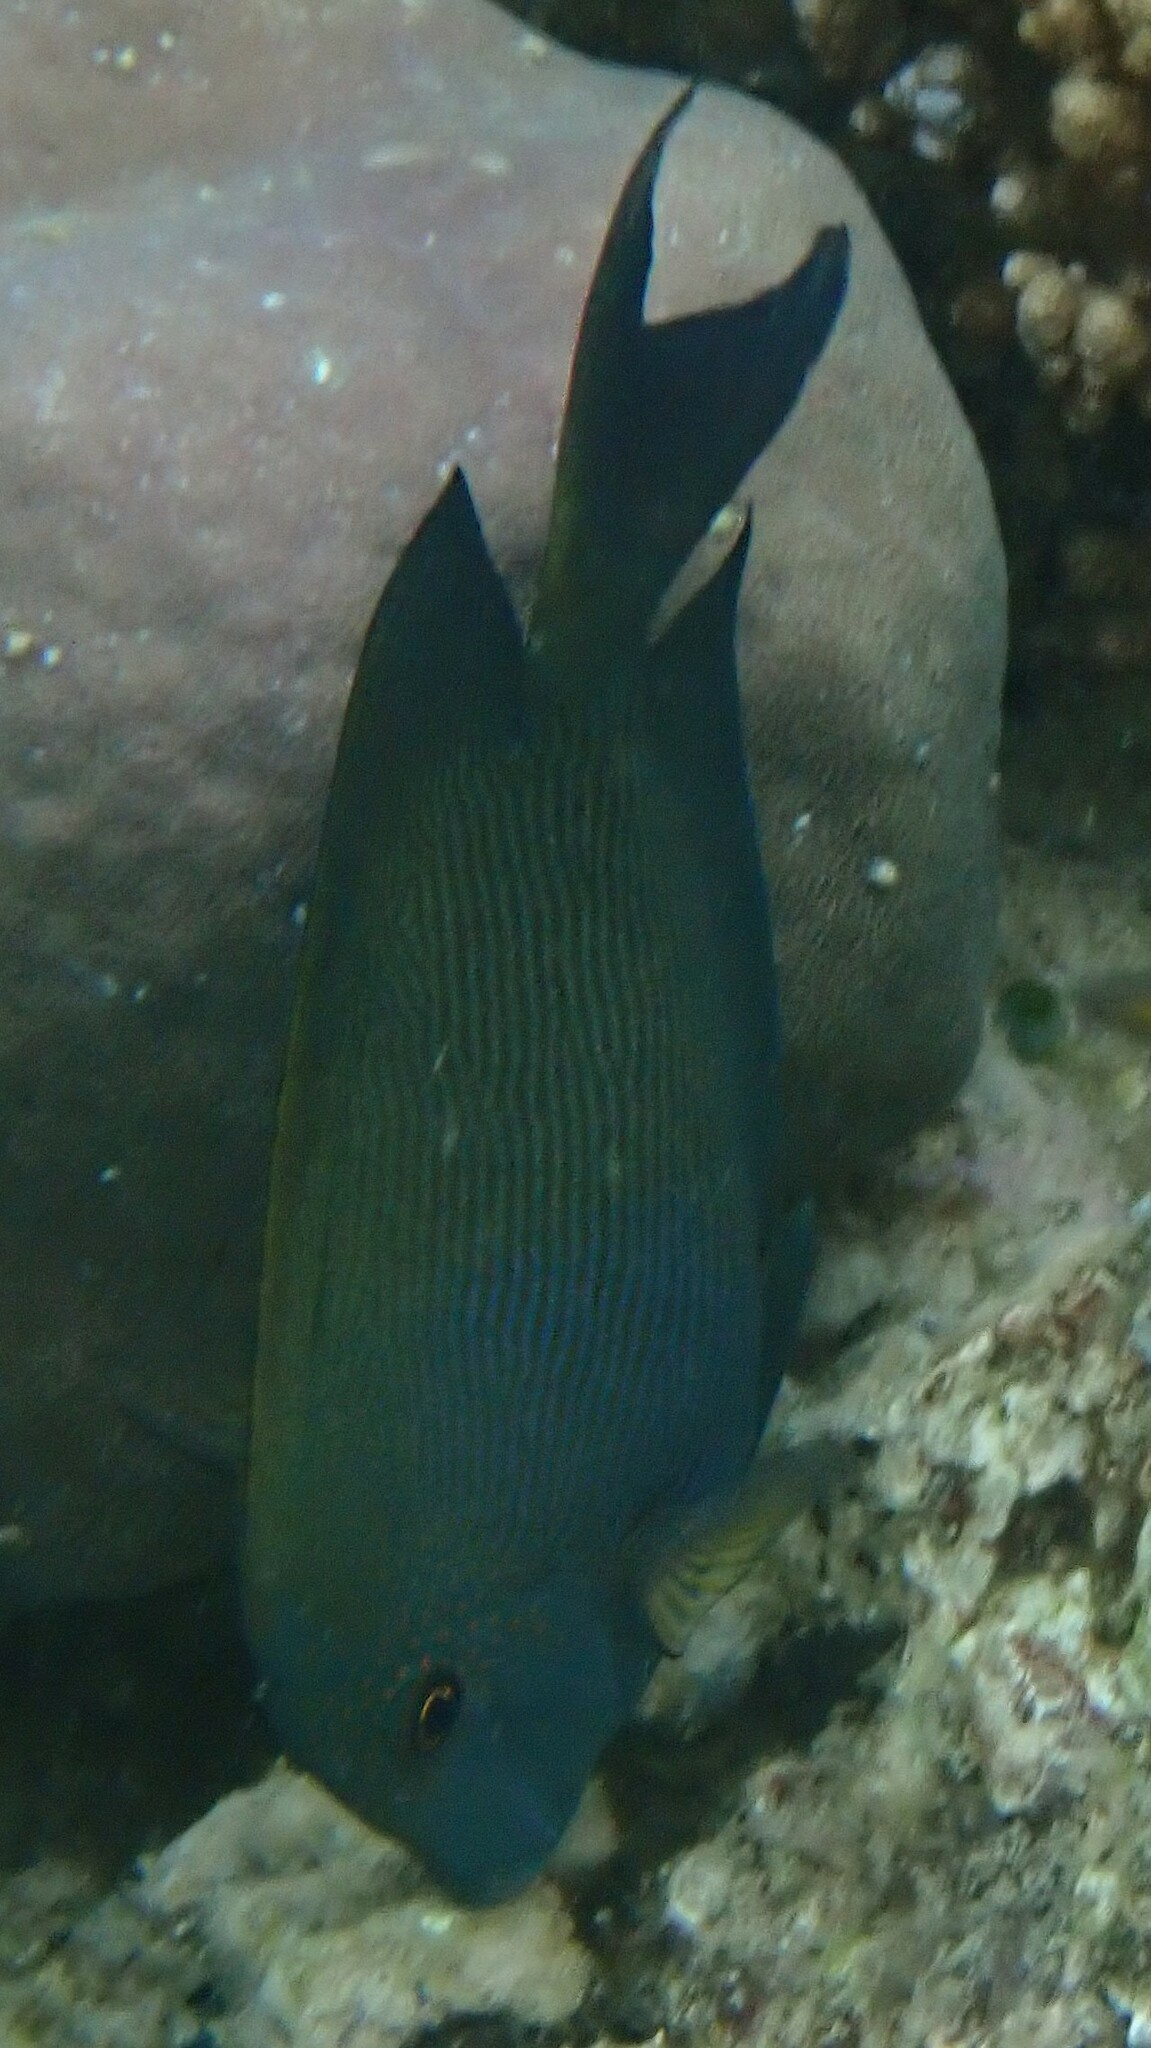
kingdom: Animalia
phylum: Chordata
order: Perciformes
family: Acanthuridae
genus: Ctenochaetus
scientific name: Ctenochaetus striatus
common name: Bristle-toothed surgeonfish
